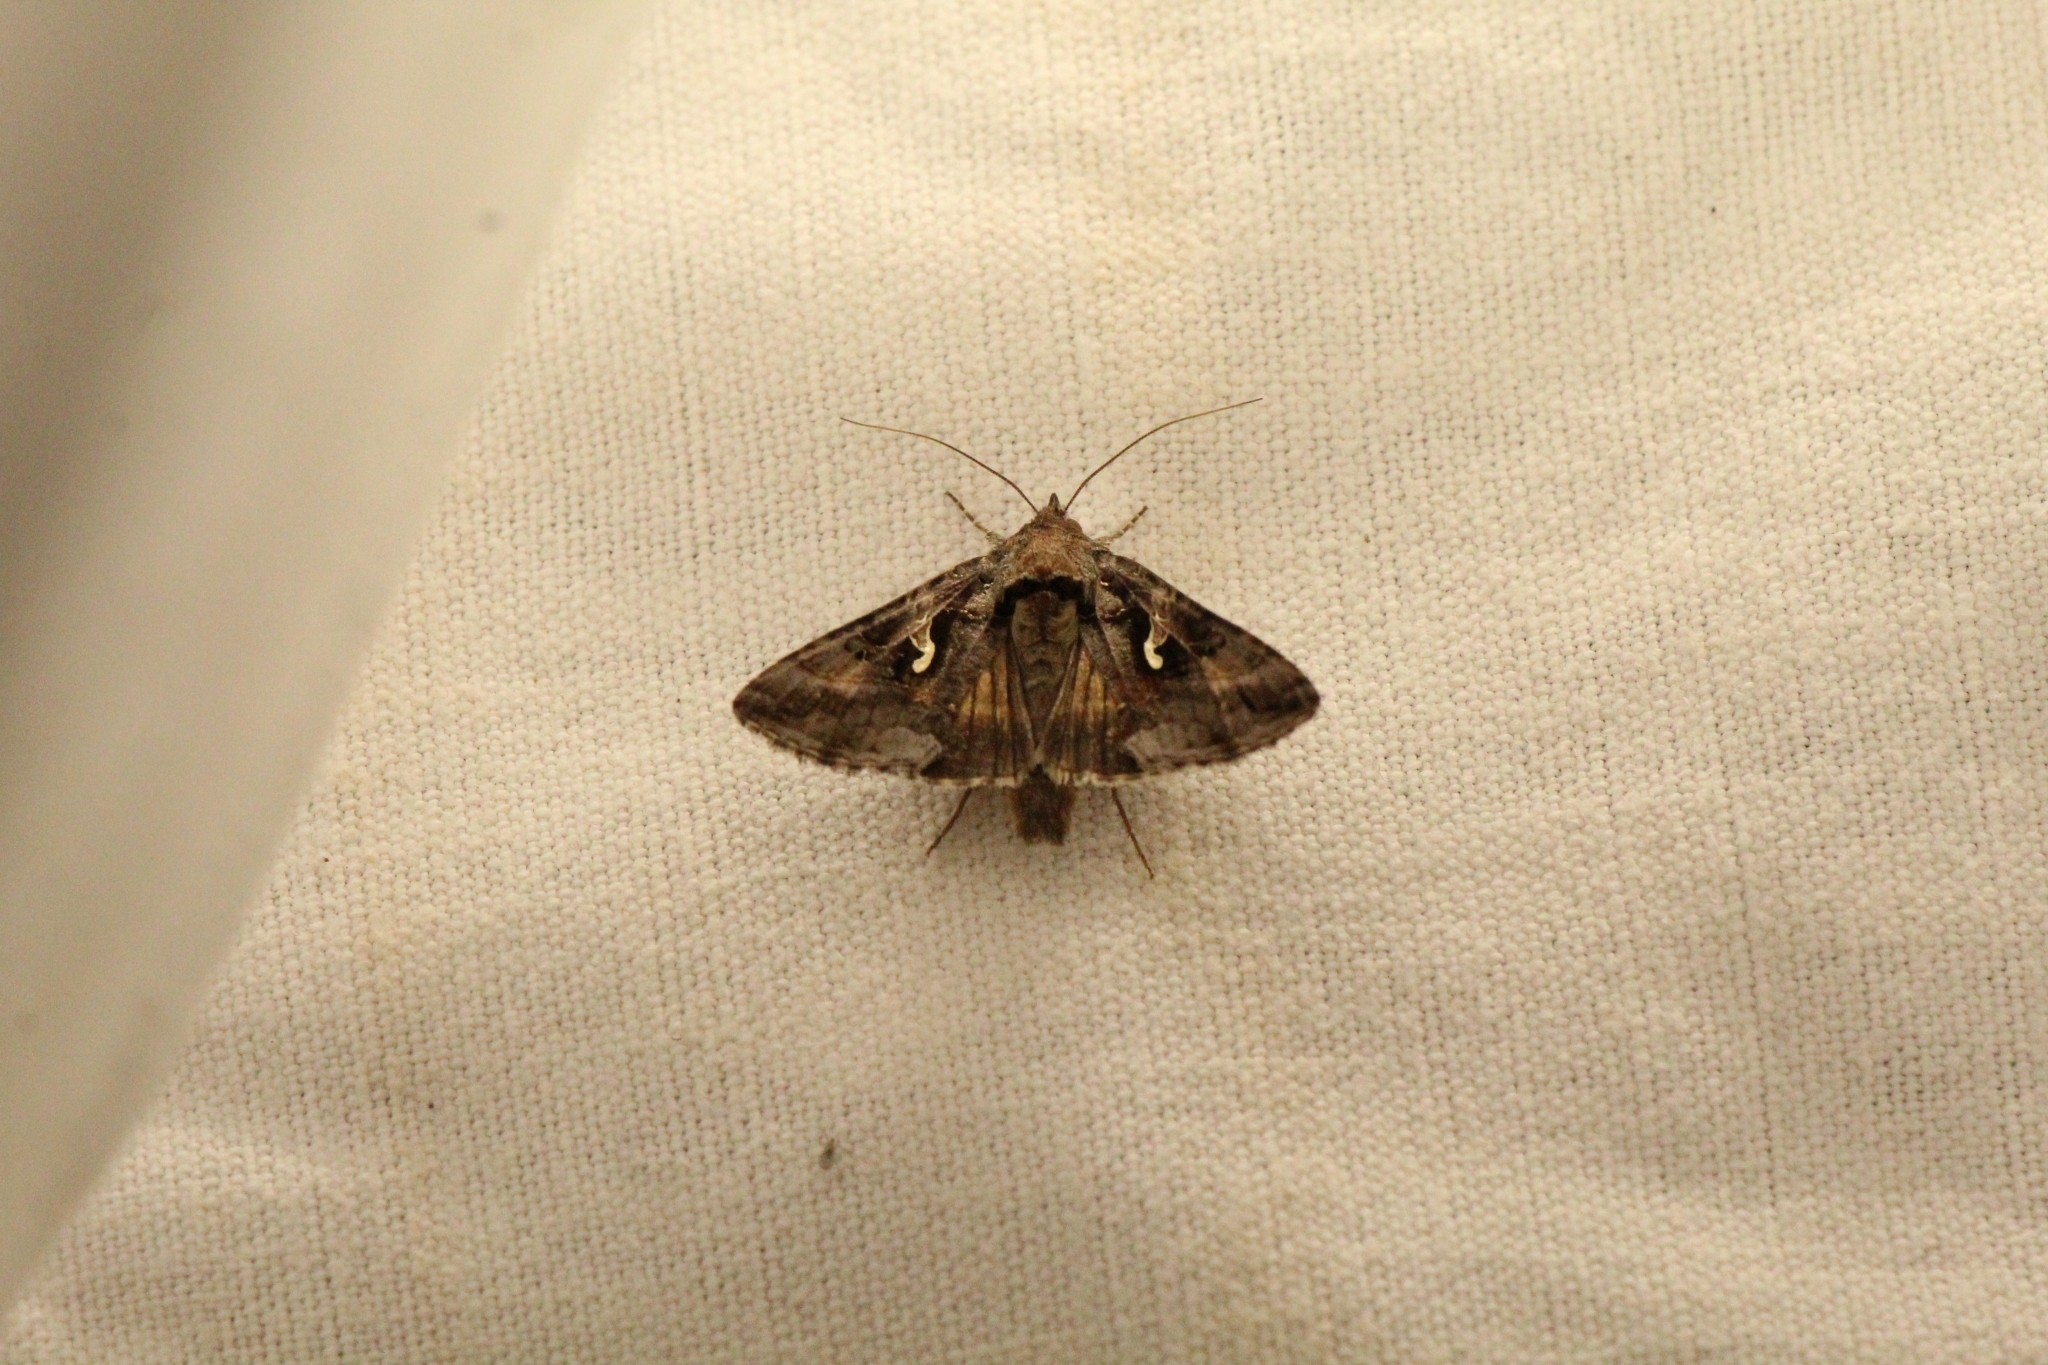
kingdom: Animalia
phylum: Arthropoda
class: Insecta
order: Lepidoptera
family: Noctuidae
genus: Autographa
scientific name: Autographa gamma
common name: Silver y
